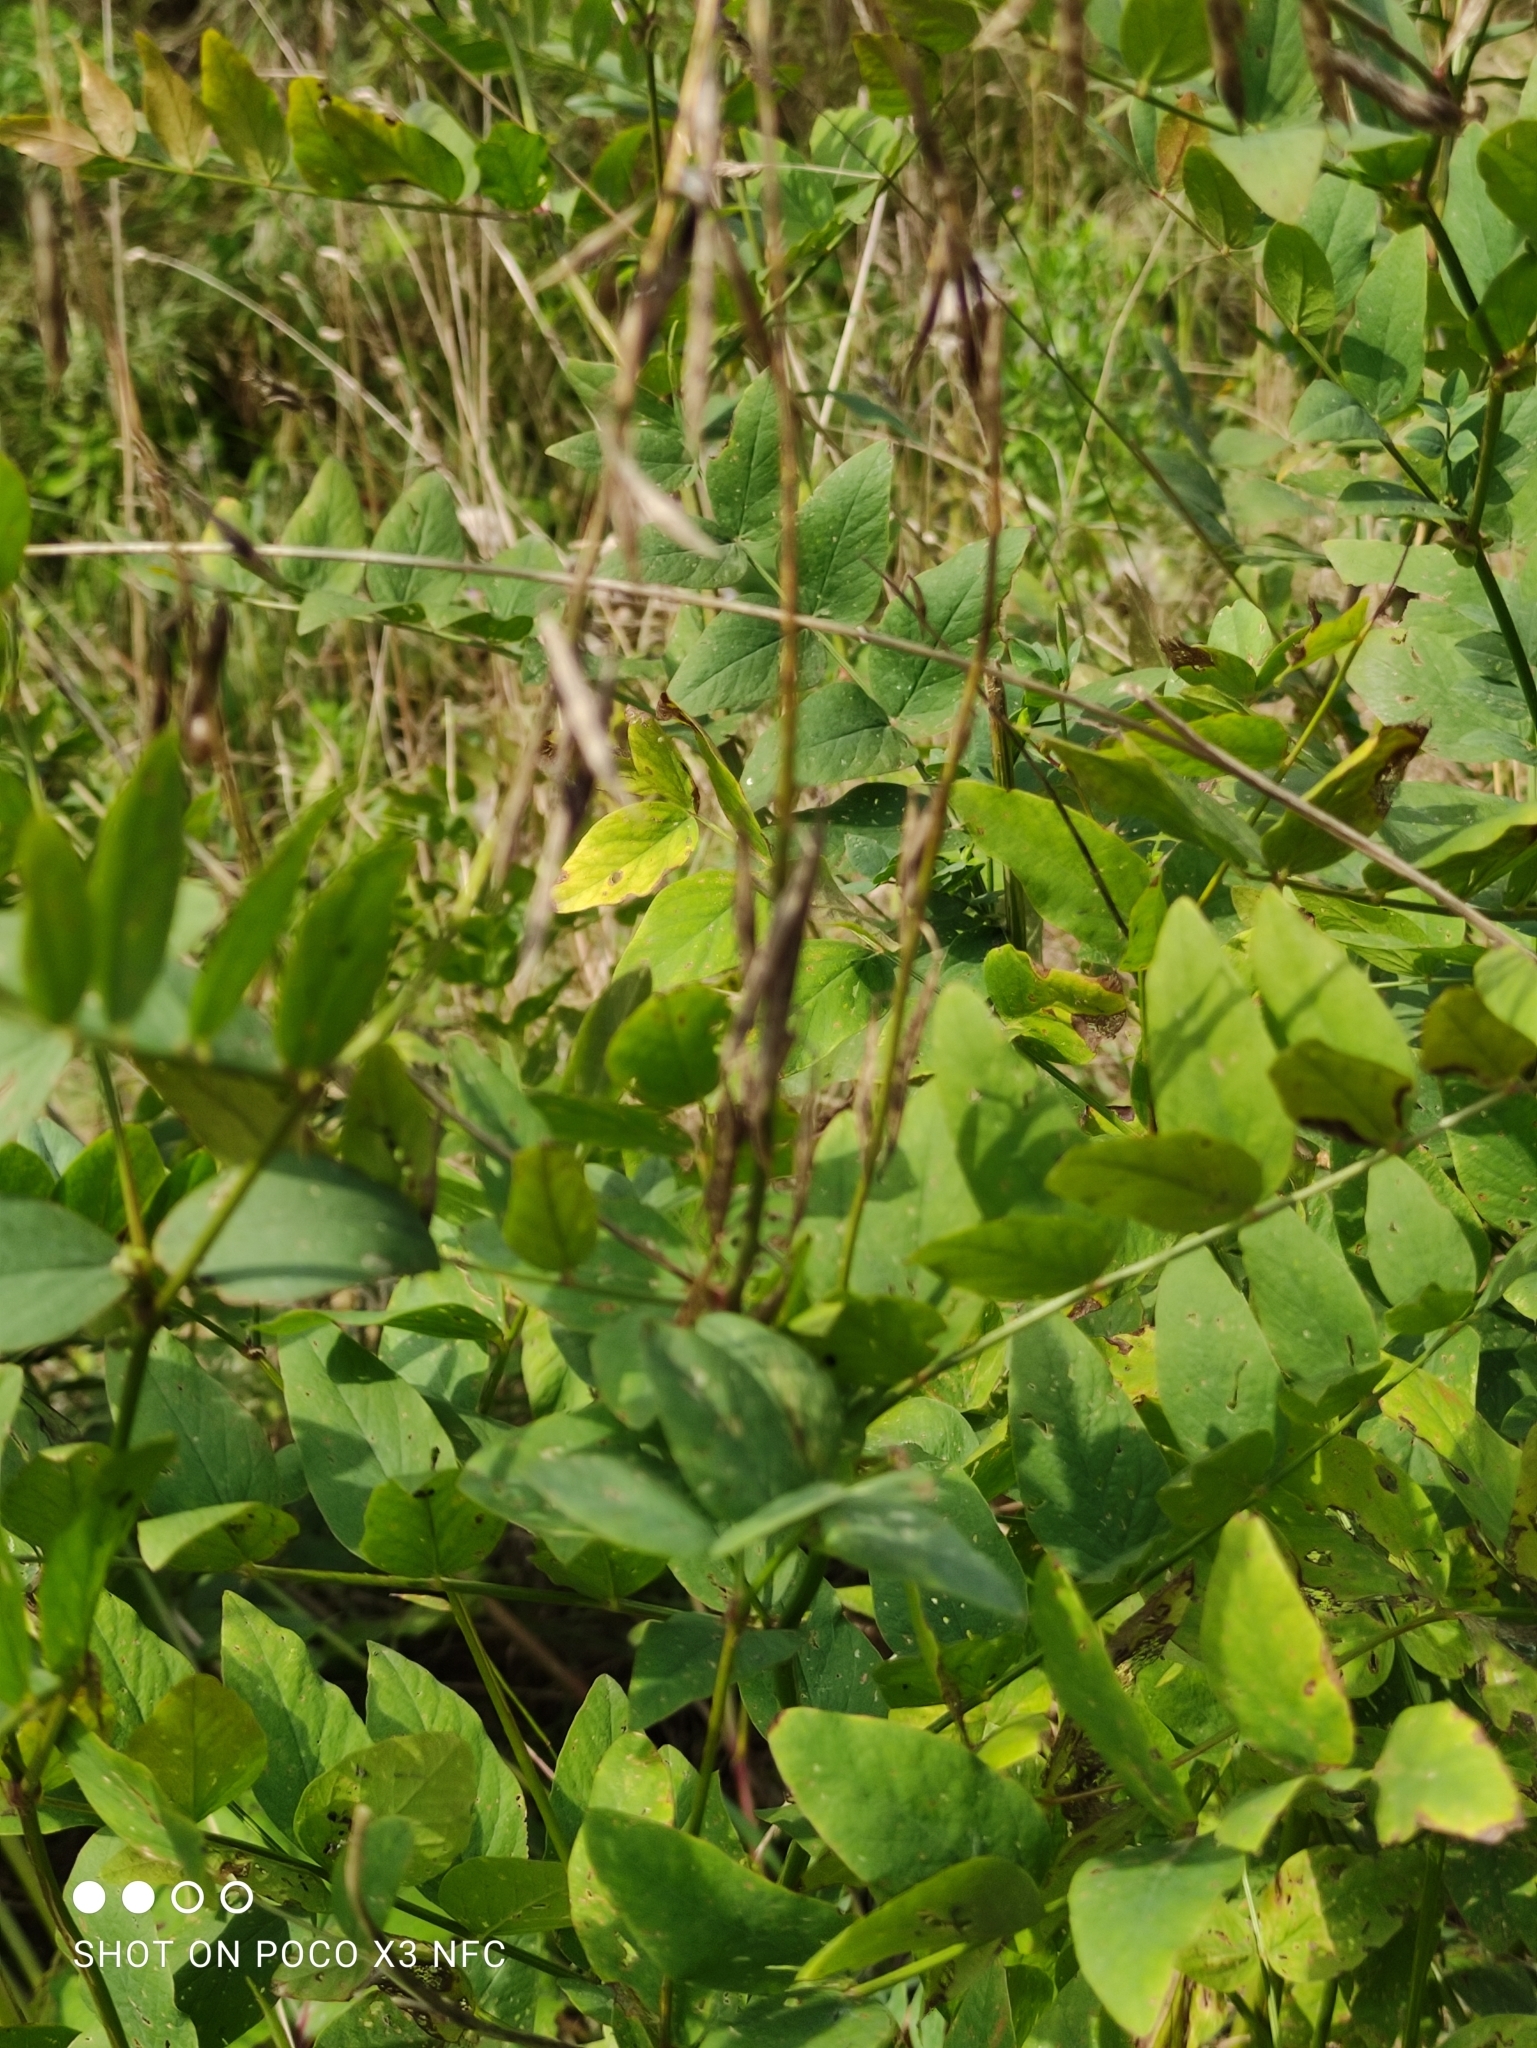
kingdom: Plantae
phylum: Tracheophyta
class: Magnoliopsida
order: Fabales
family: Fabaceae
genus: Galega
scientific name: Galega orientalis
